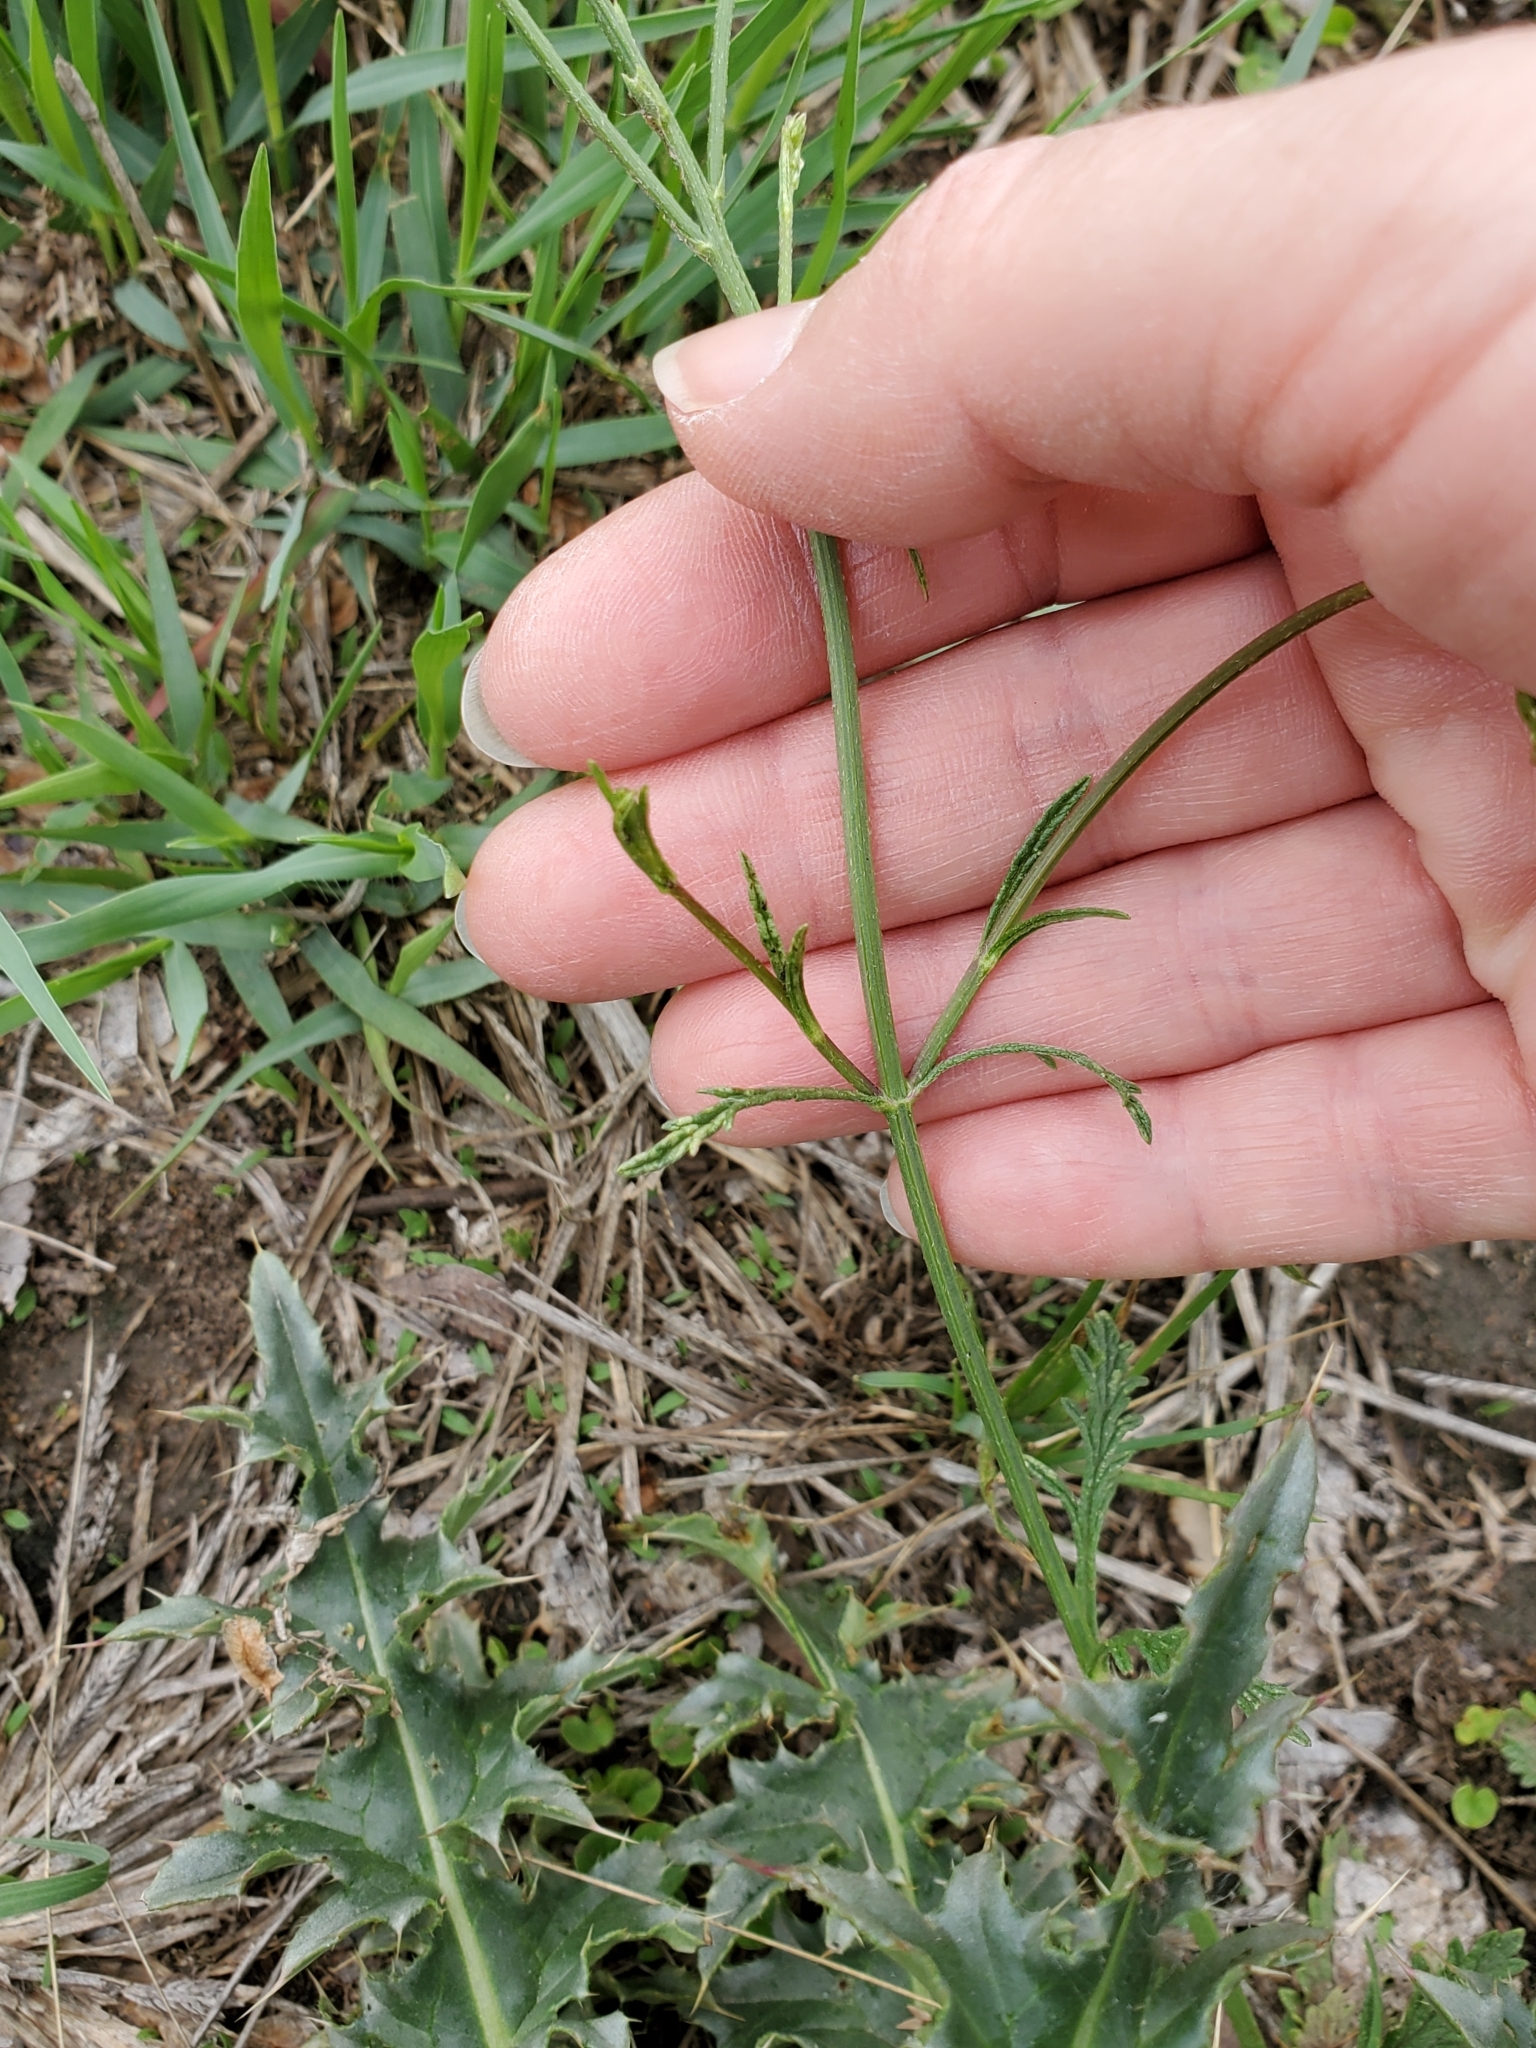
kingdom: Plantae
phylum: Tracheophyta
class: Magnoliopsida
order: Lamiales
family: Verbenaceae
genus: Verbena
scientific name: Verbena halei
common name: Texas vervain
